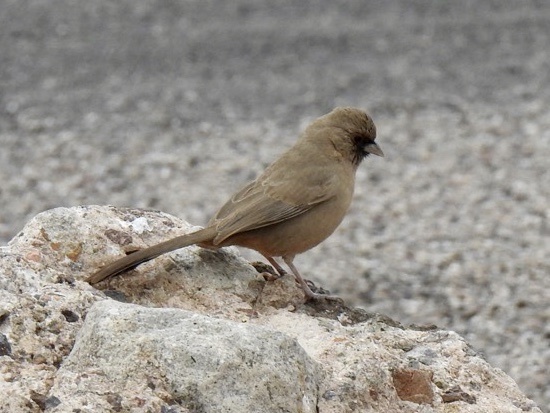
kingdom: Animalia
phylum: Chordata
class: Aves
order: Passeriformes
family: Passerellidae
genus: Melozone
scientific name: Melozone aberti
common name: Abert's towhee
